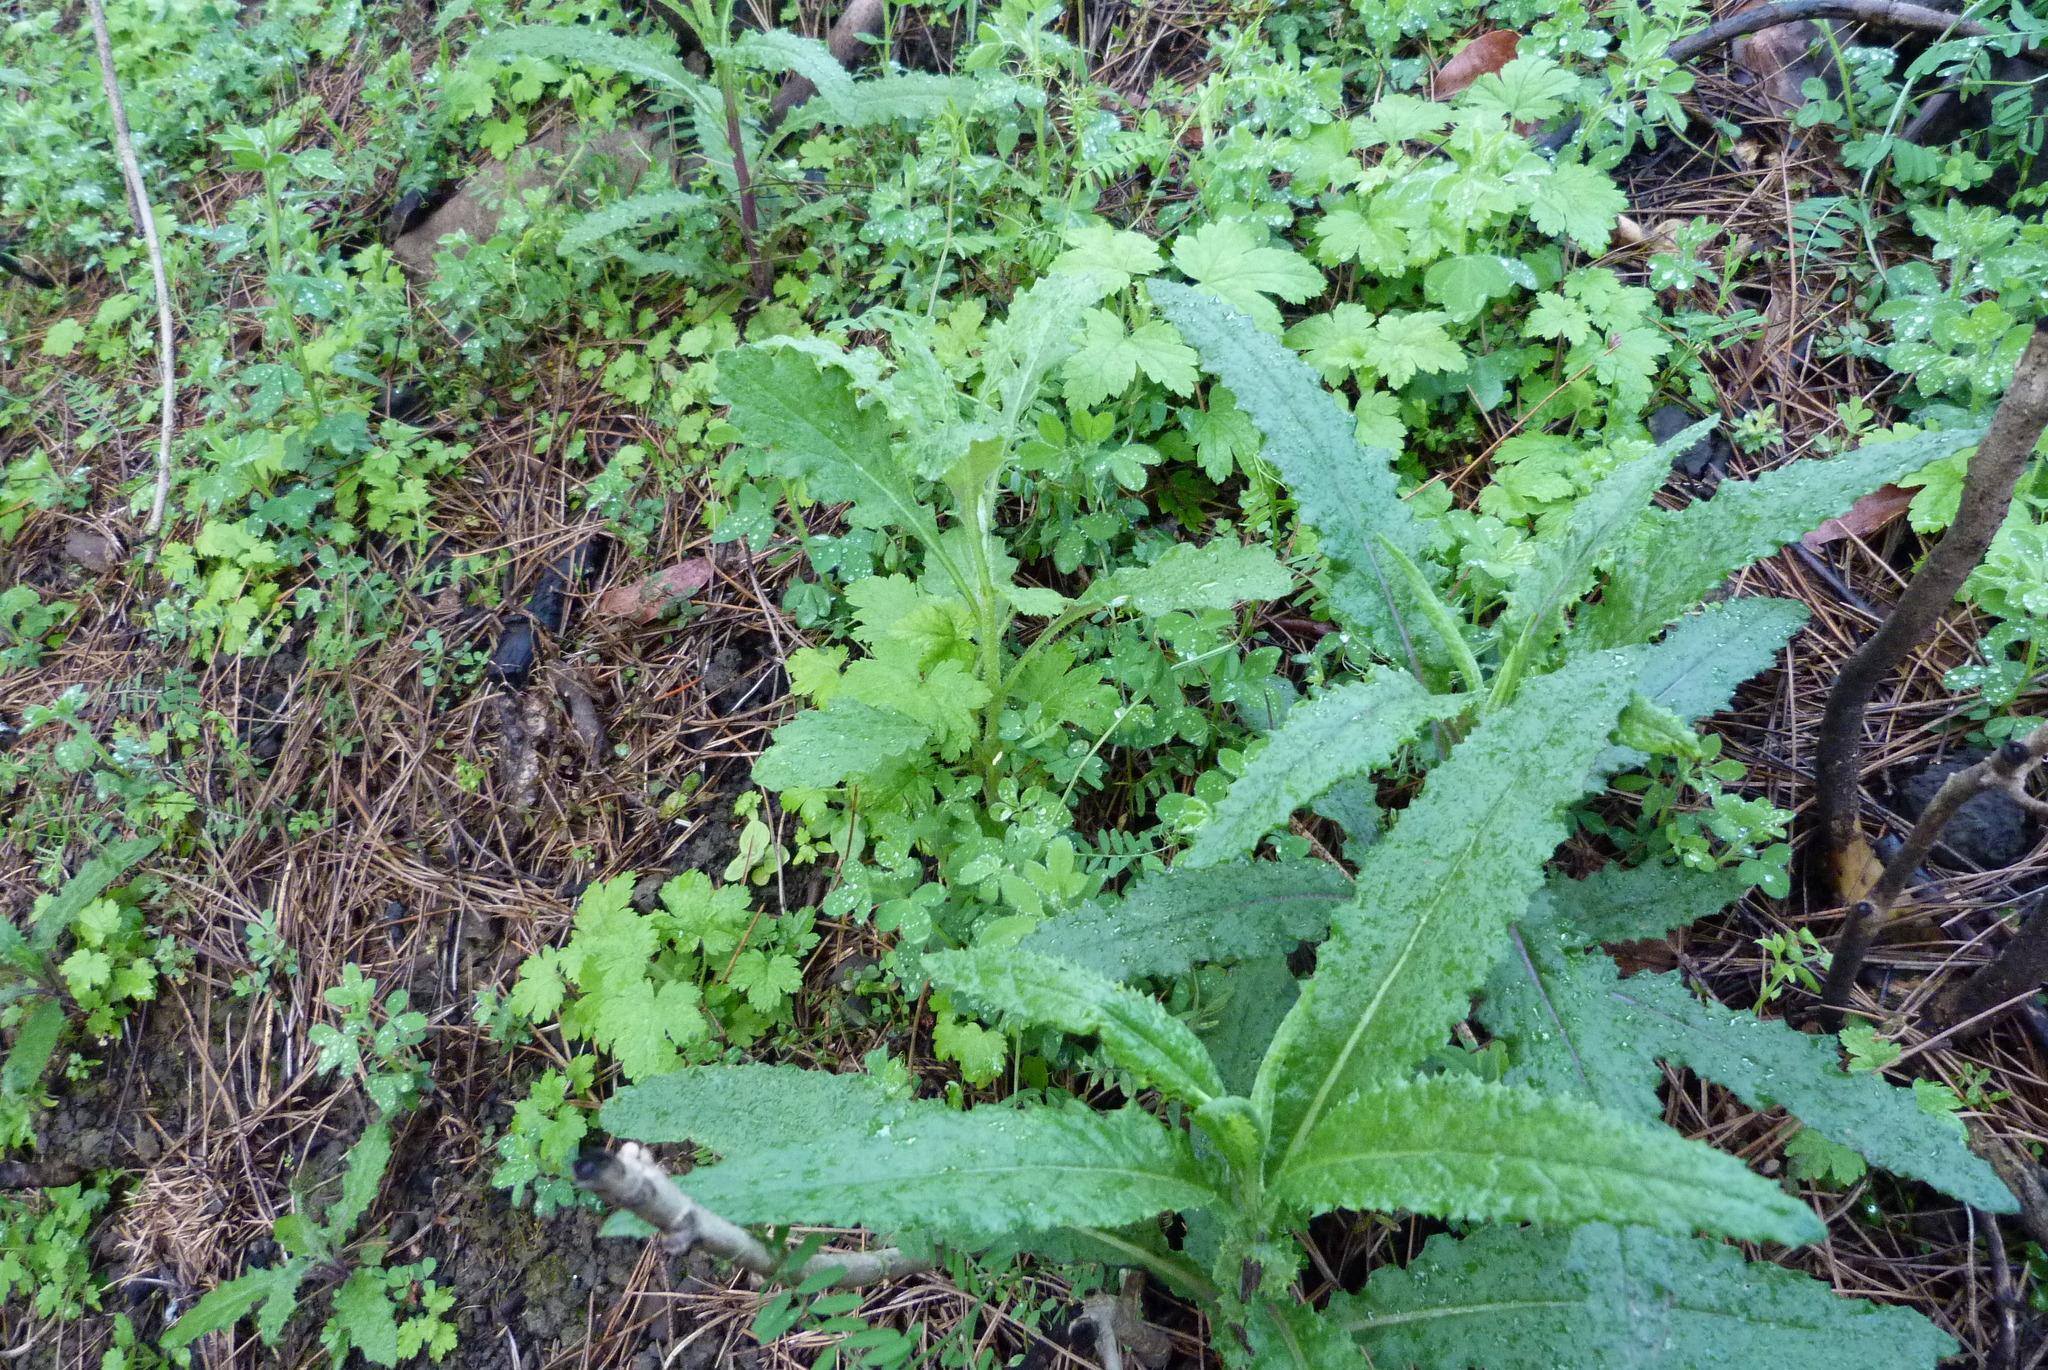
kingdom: Plantae
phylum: Tracheophyta
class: Magnoliopsida
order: Asterales
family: Asteraceae
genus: Senecio
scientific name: Senecio minimus
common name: Toothed fireweed
